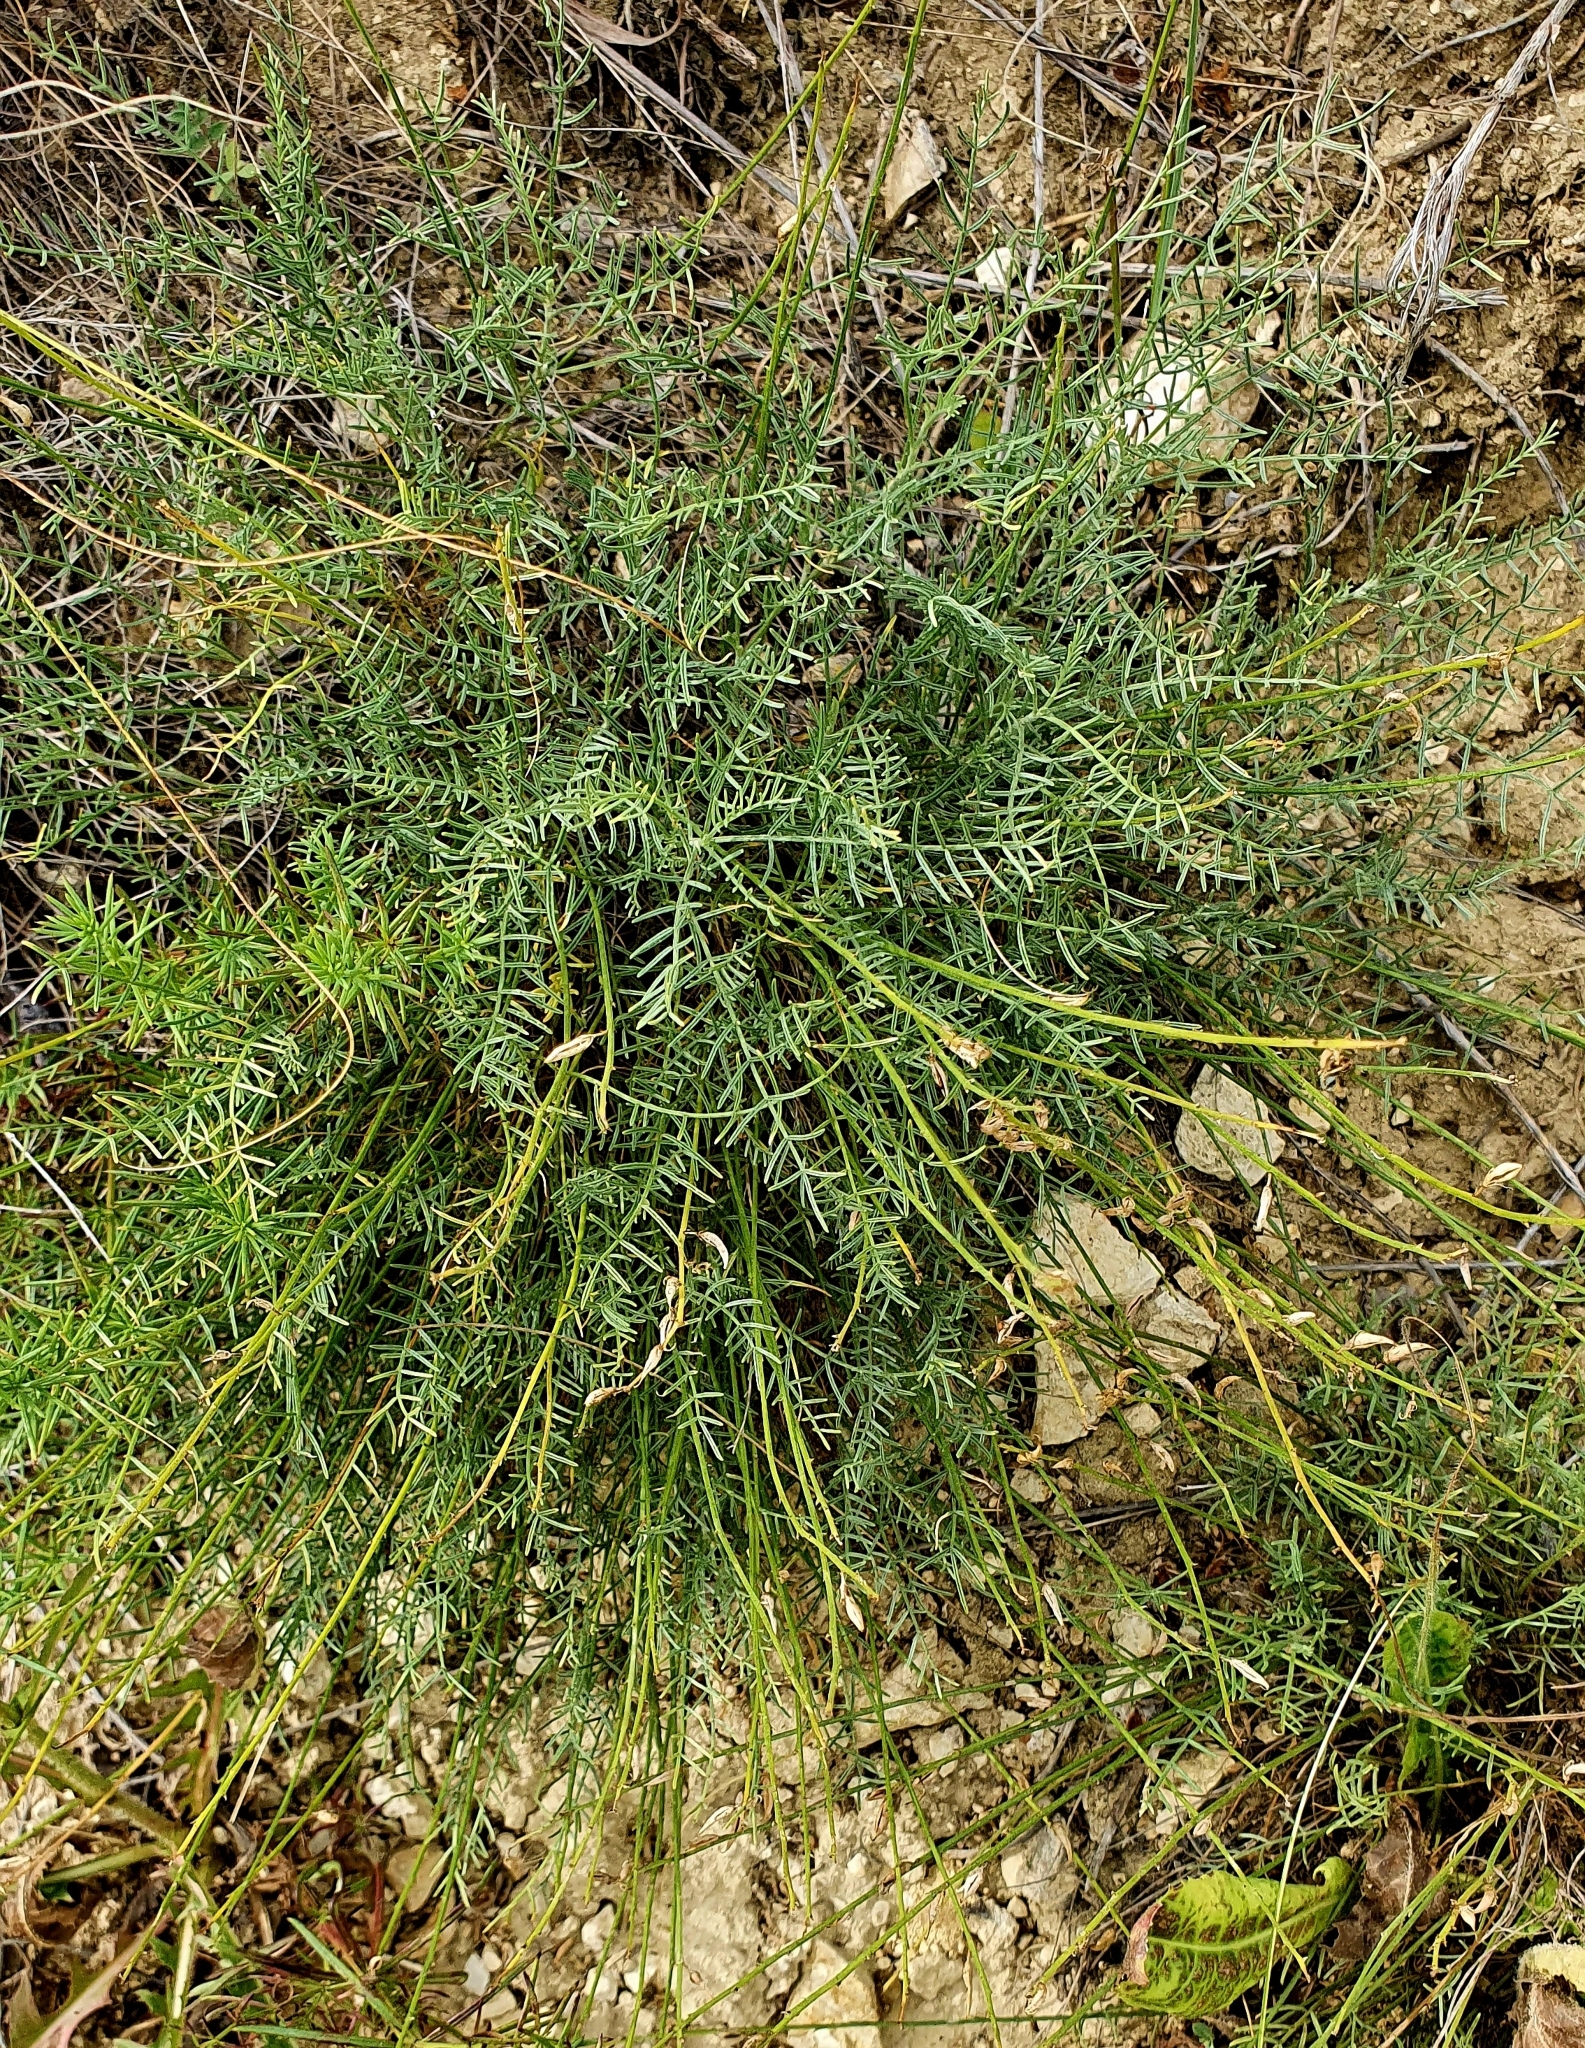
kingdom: Plantae
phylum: Tracheophyta
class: Magnoliopsida
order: Fabales
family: Fabaceae
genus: Astragalus
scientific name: Astragalus
